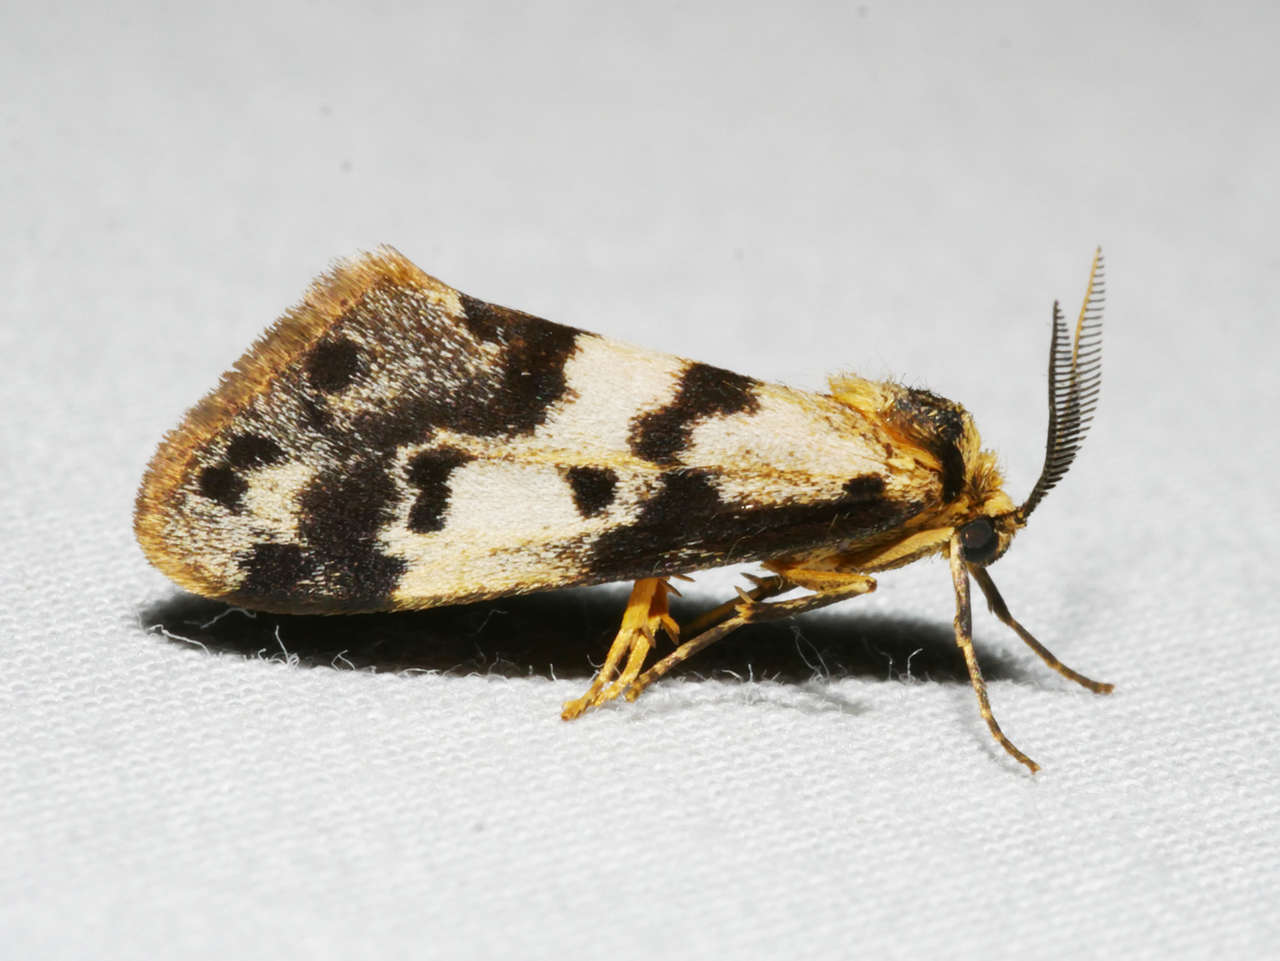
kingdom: Animalia
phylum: Arthropoda
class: Insecta
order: Lepidoptera
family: Erebidae
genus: Anestia
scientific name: Anestia
